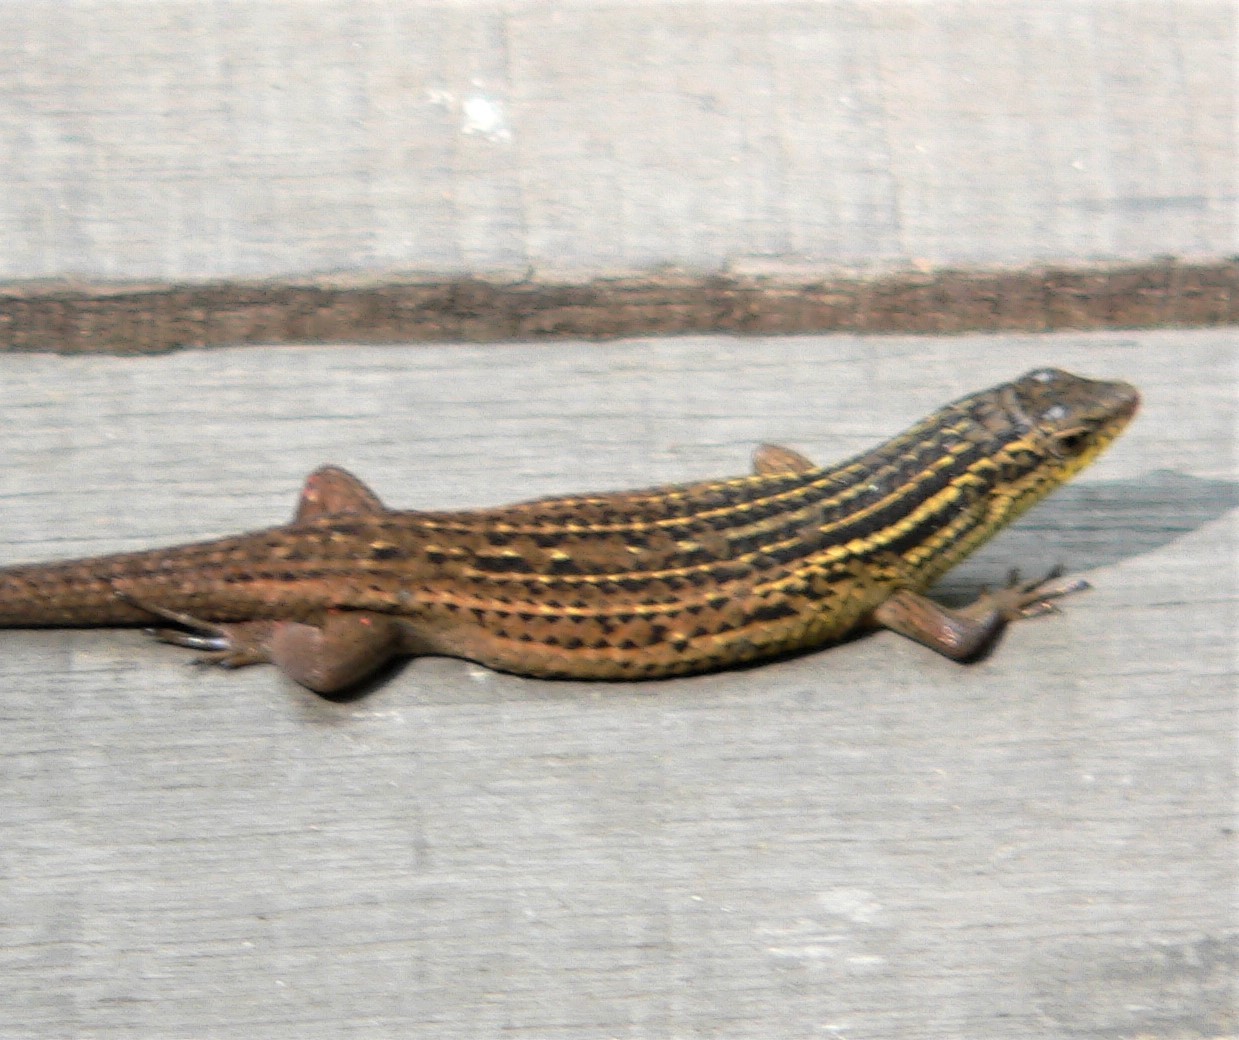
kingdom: Animalia
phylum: Chordata
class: Squamata
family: Scincidae
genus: Eutropis
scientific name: Eutropis rugifera
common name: Rough-scaled sun skink
